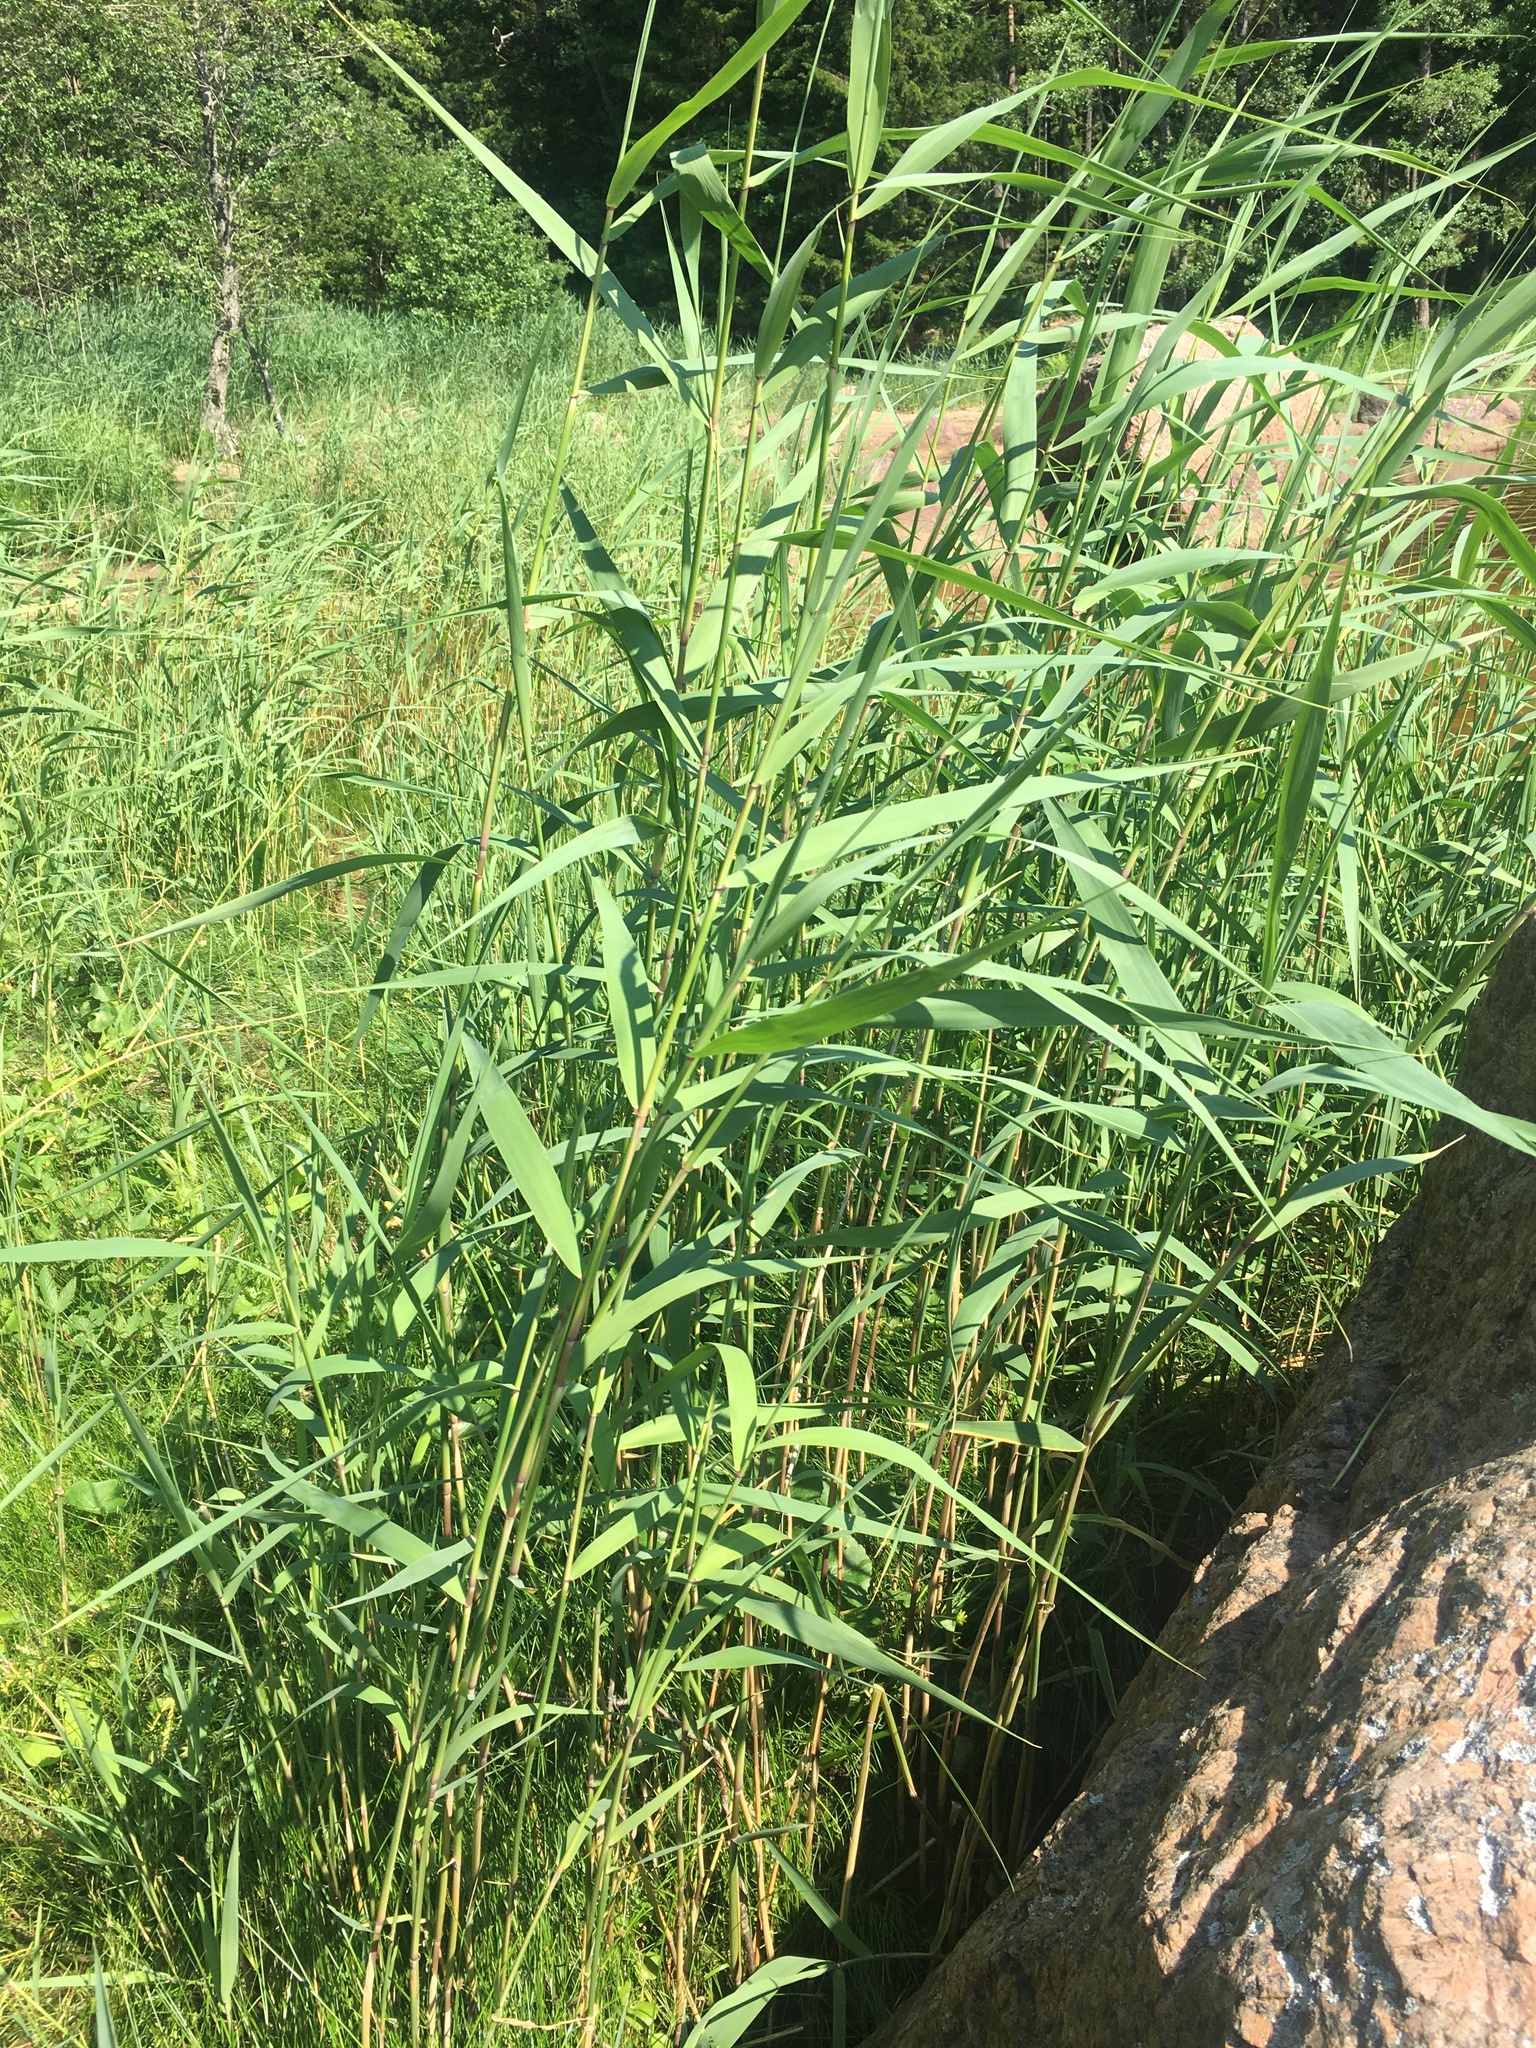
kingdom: Plantae
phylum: Tracheophyta
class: Liliopsida
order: Poales
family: Poaceae
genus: Phragmites
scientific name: Phragmites australis
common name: Common reed
